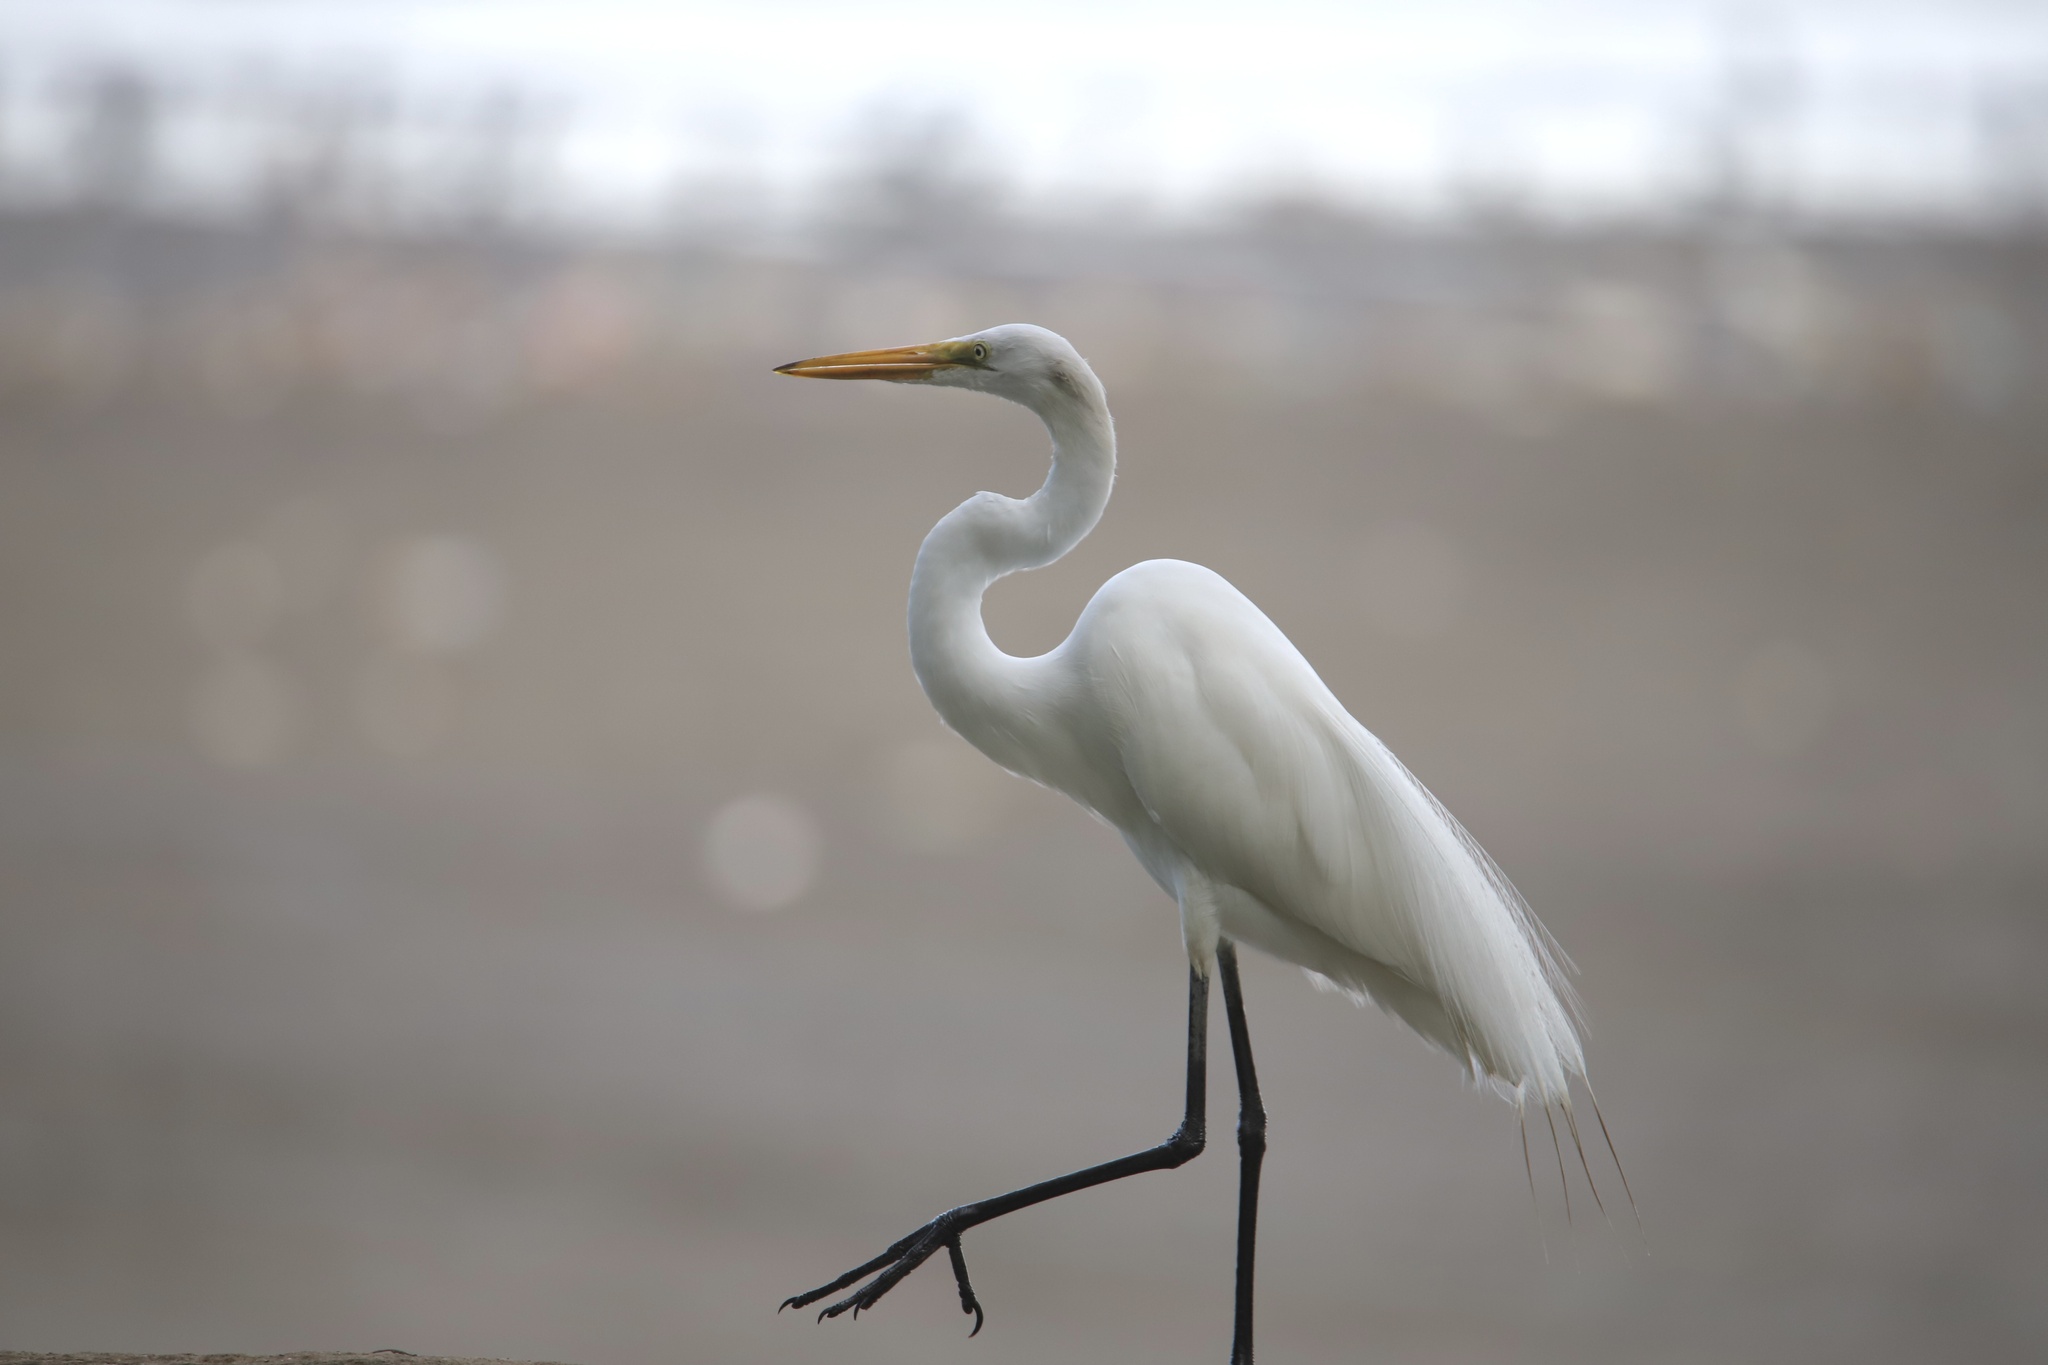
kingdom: Animalia
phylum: Chordata
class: Aves
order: Pelecaniformes
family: Ardeidae
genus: Ardea
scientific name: Ardea alba
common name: Great egret
